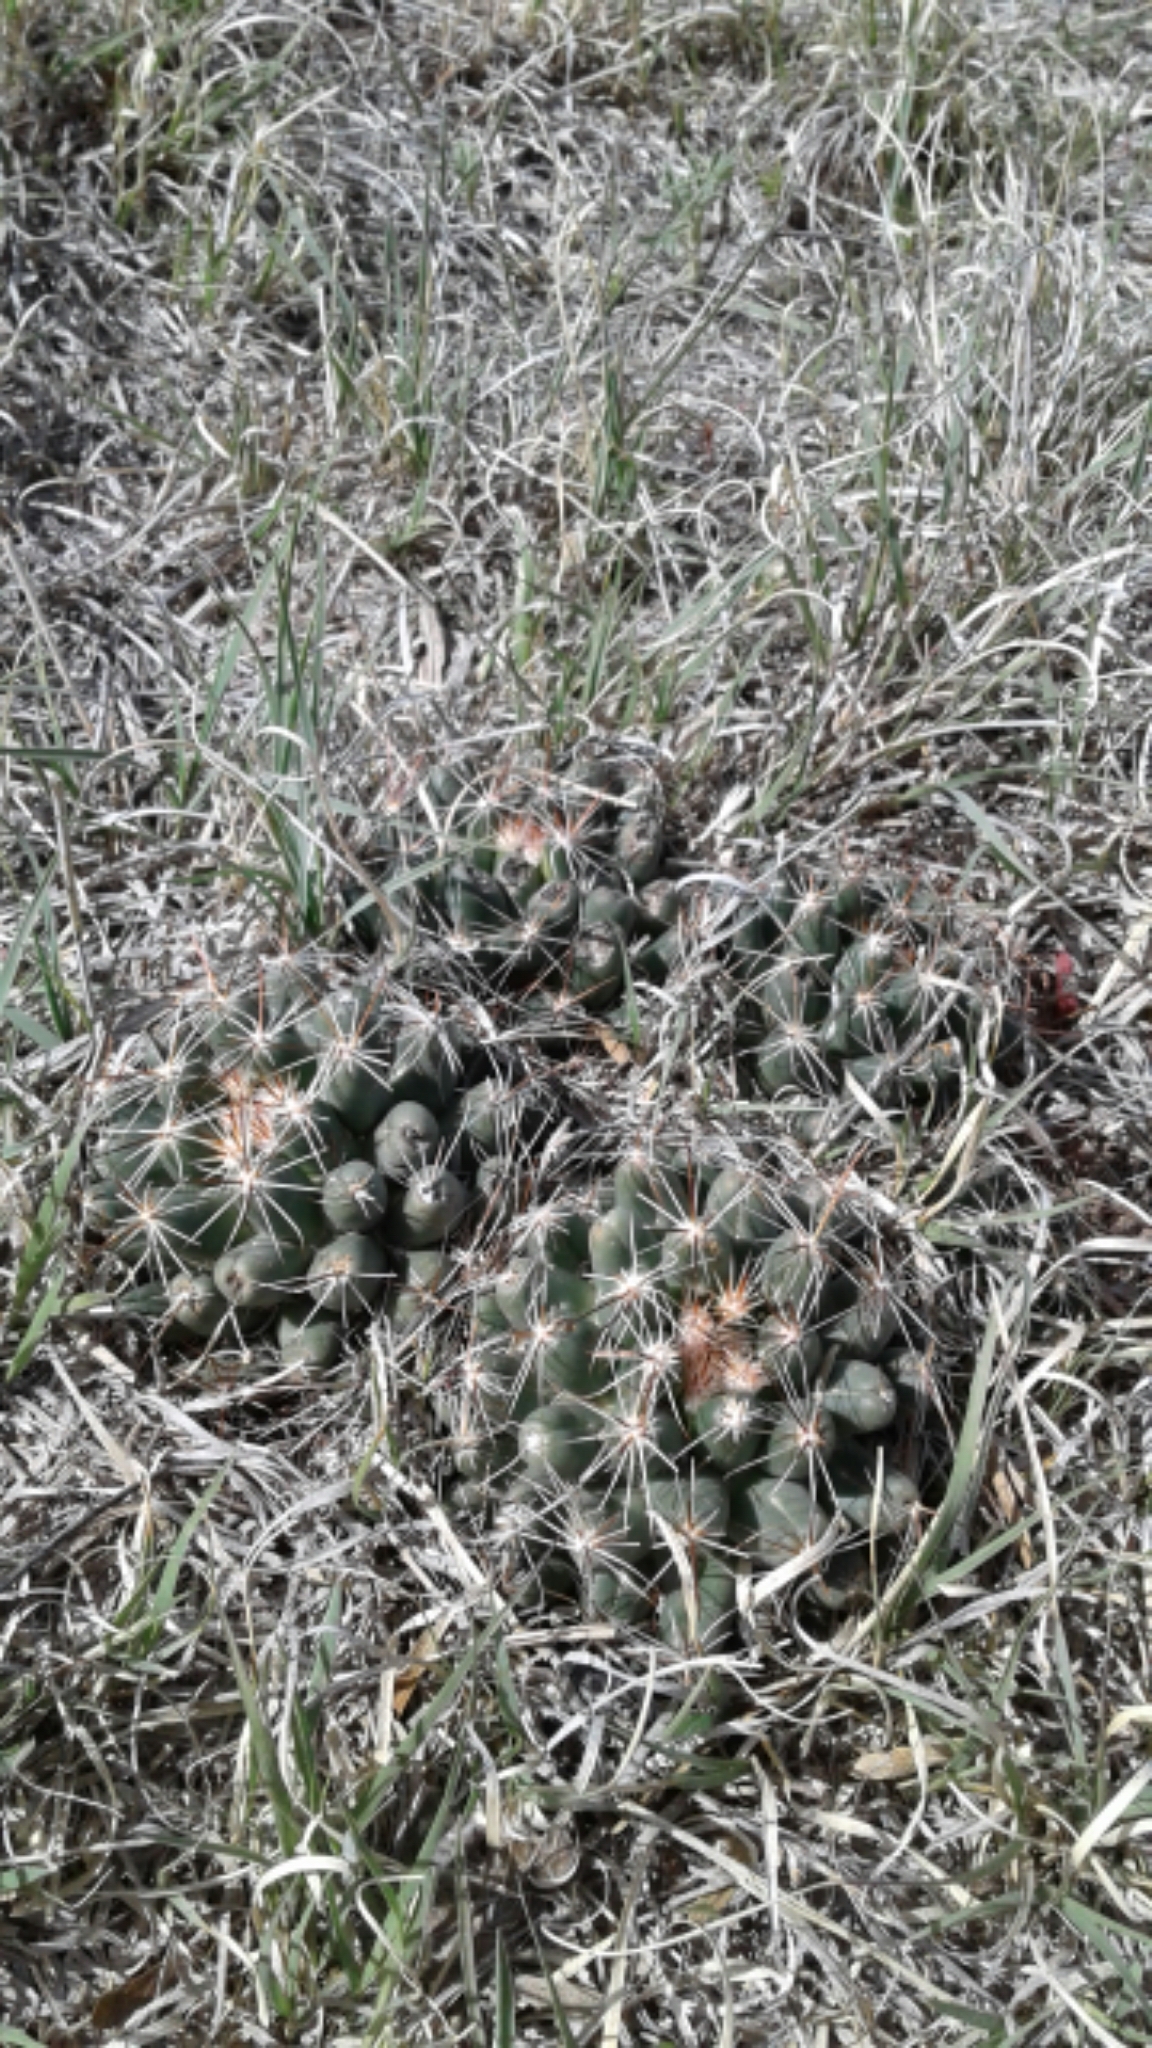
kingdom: Plantae
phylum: Tracheophyta
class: Magnoliopsida
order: Caryophyllales
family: Cactaceae
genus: Pelecyphora
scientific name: Pelecyphora vivipara
